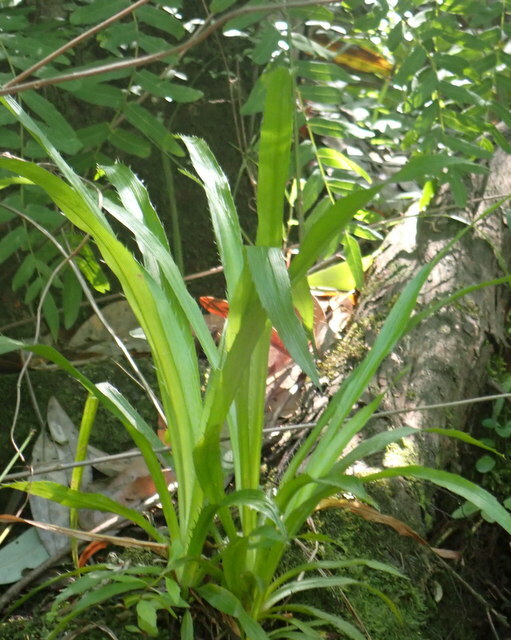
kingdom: Plantae
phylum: Tracheophyta
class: Magnoliopsida
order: Apiales
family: Apiaceae
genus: Eryngium
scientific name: Eryngium yuccifolium
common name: Button eryngo
